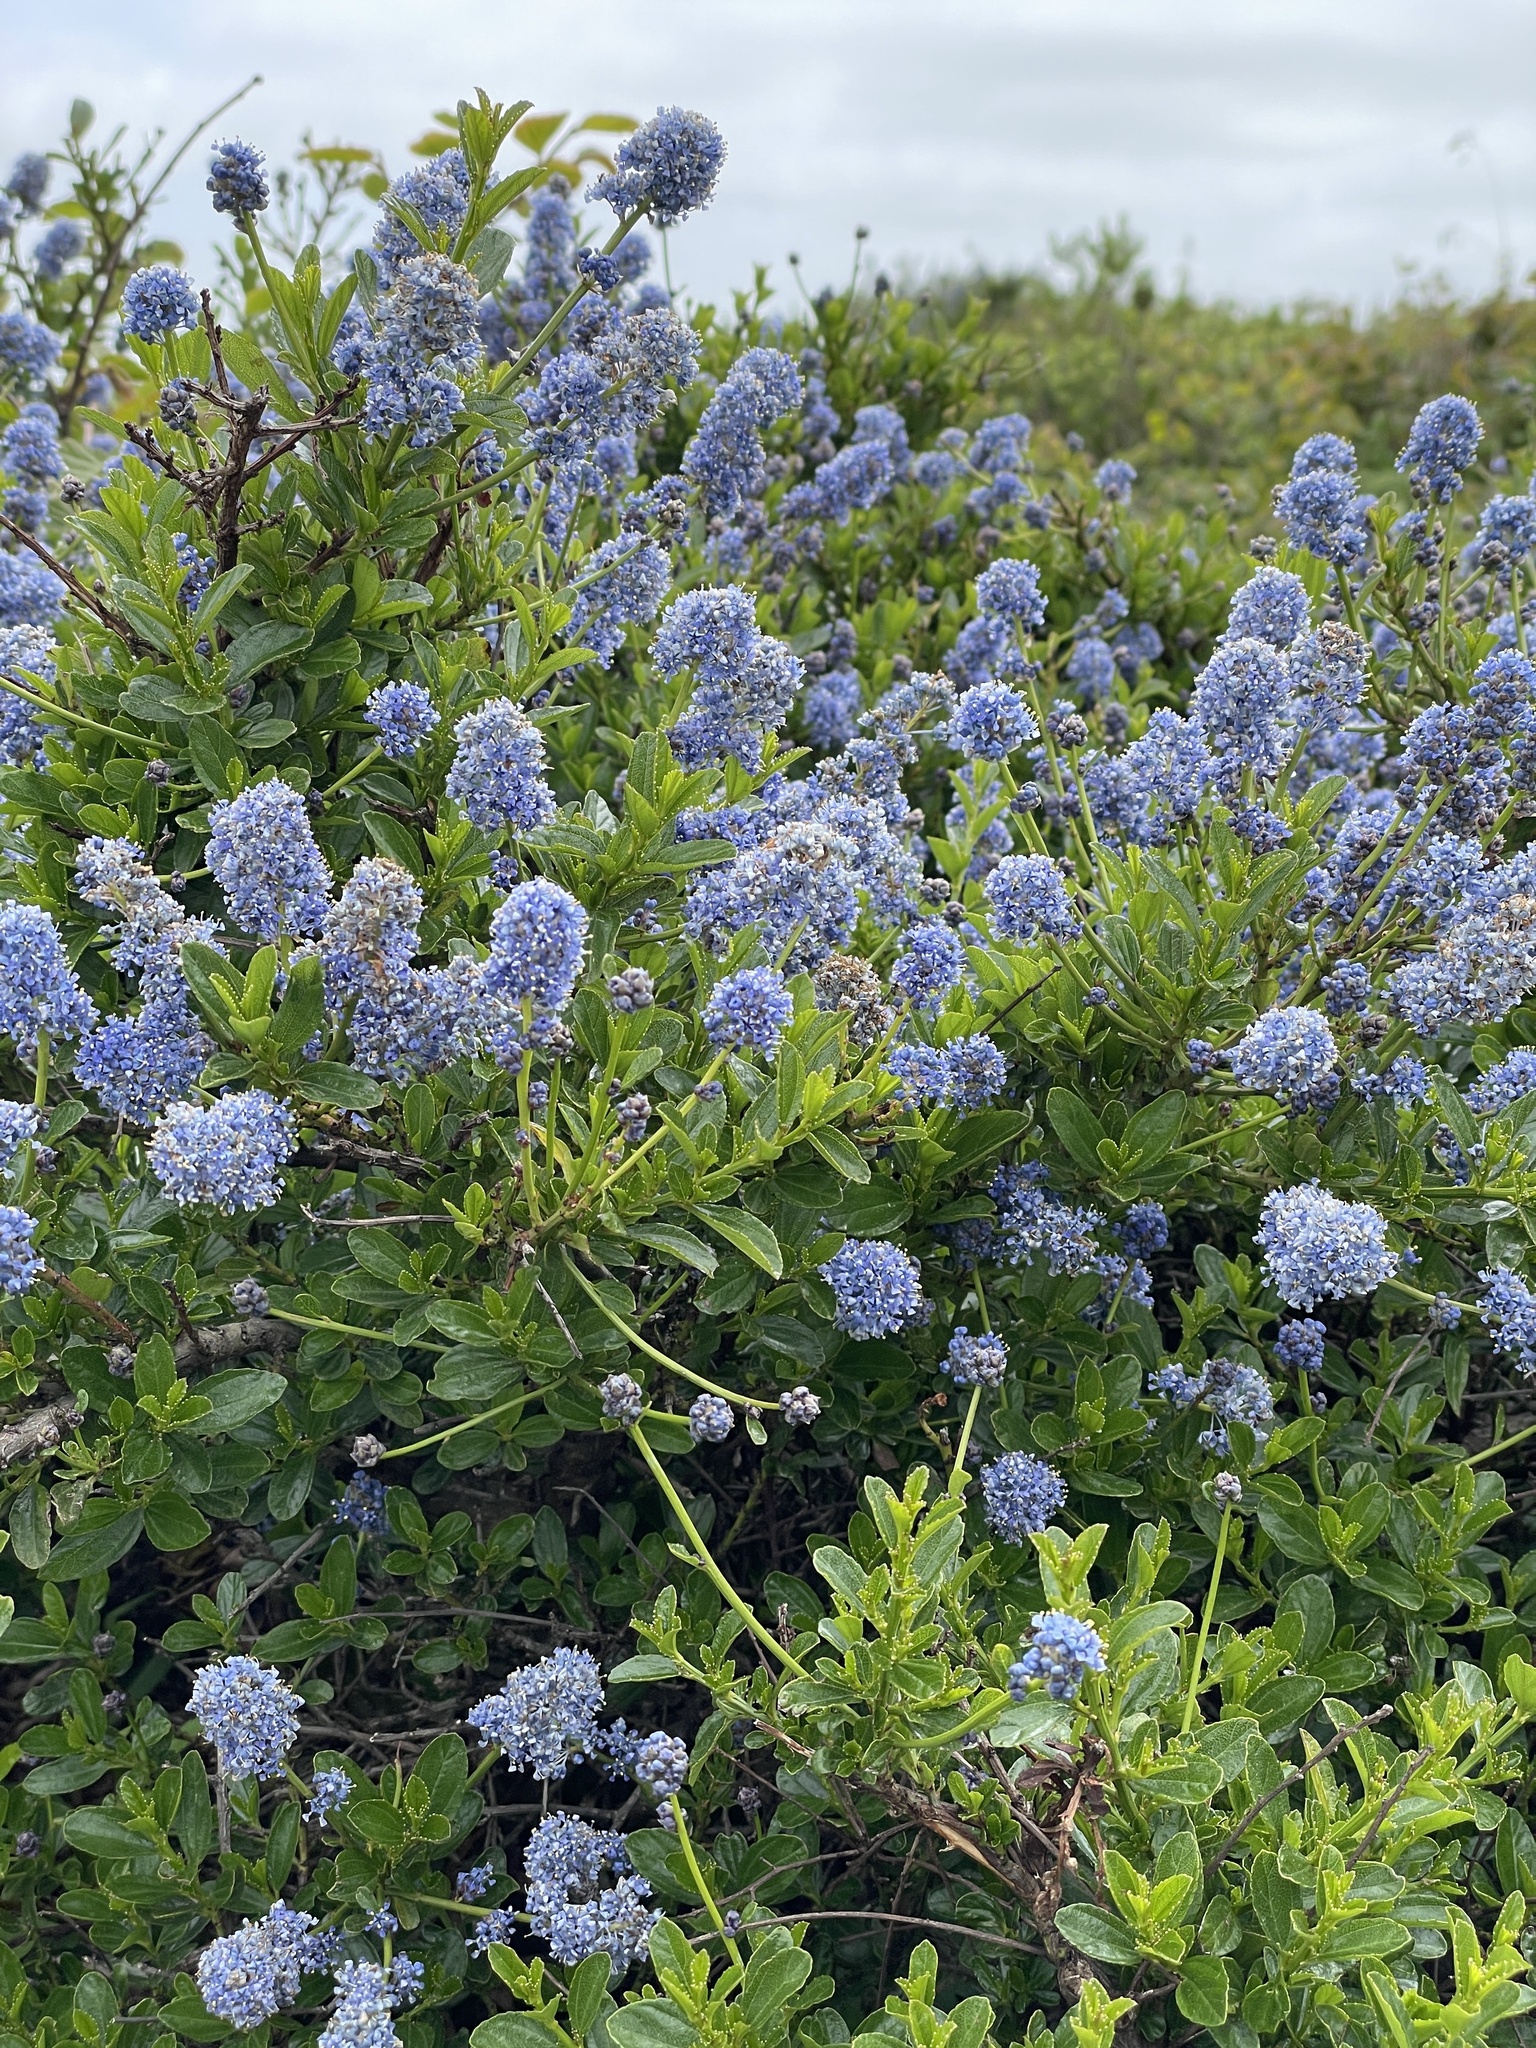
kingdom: Plantae
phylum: Tracheophyta
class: Magnoliopsida
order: Rosales
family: Rhamnaceae
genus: Ceanothus
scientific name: Ceanothus thyrsiflorus
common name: California-lilac
